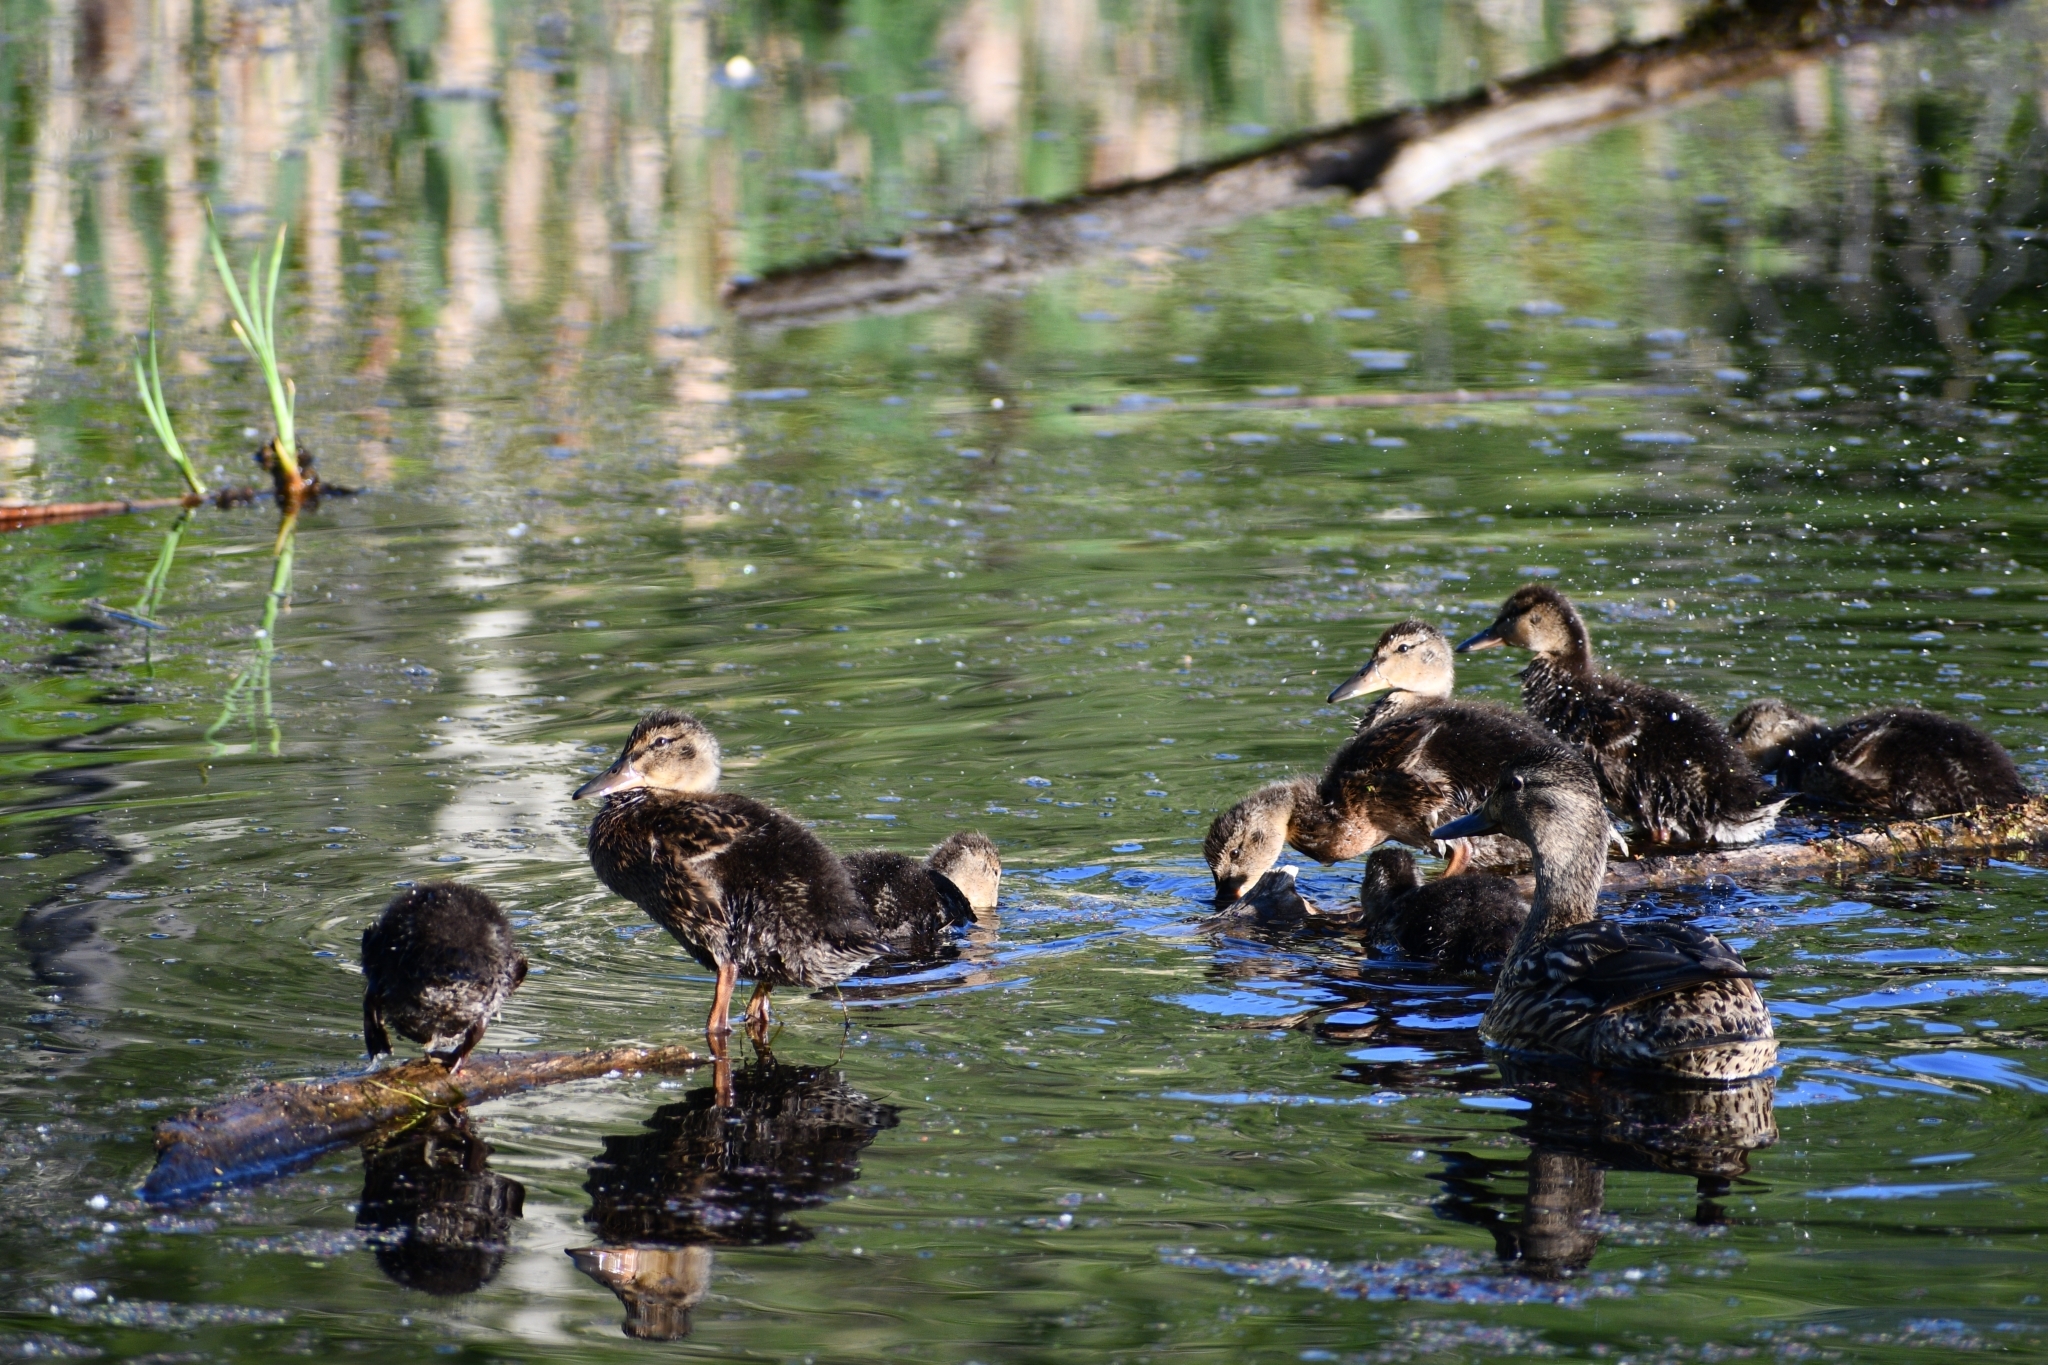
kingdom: Animalia
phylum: Chordata
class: Aves
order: Anseriformes
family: Anatidae
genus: Anas
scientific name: Anas platyrhynchos
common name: Mallard
